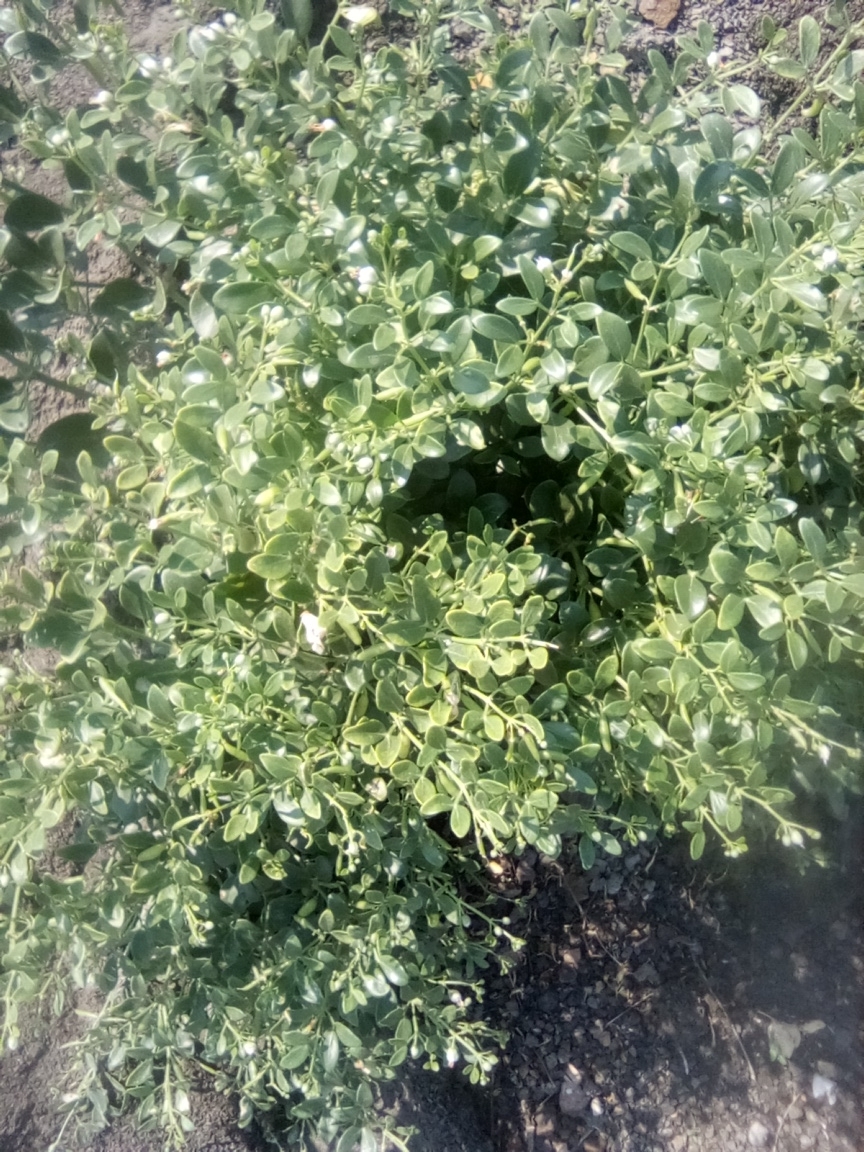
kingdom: Plantae
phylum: Tracheophyta
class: Magnoliopsida
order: Zygophyllales
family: Zygophyllaceae
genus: Zygophyllum
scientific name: Zygophyllum fabago
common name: Syrian beancaper
